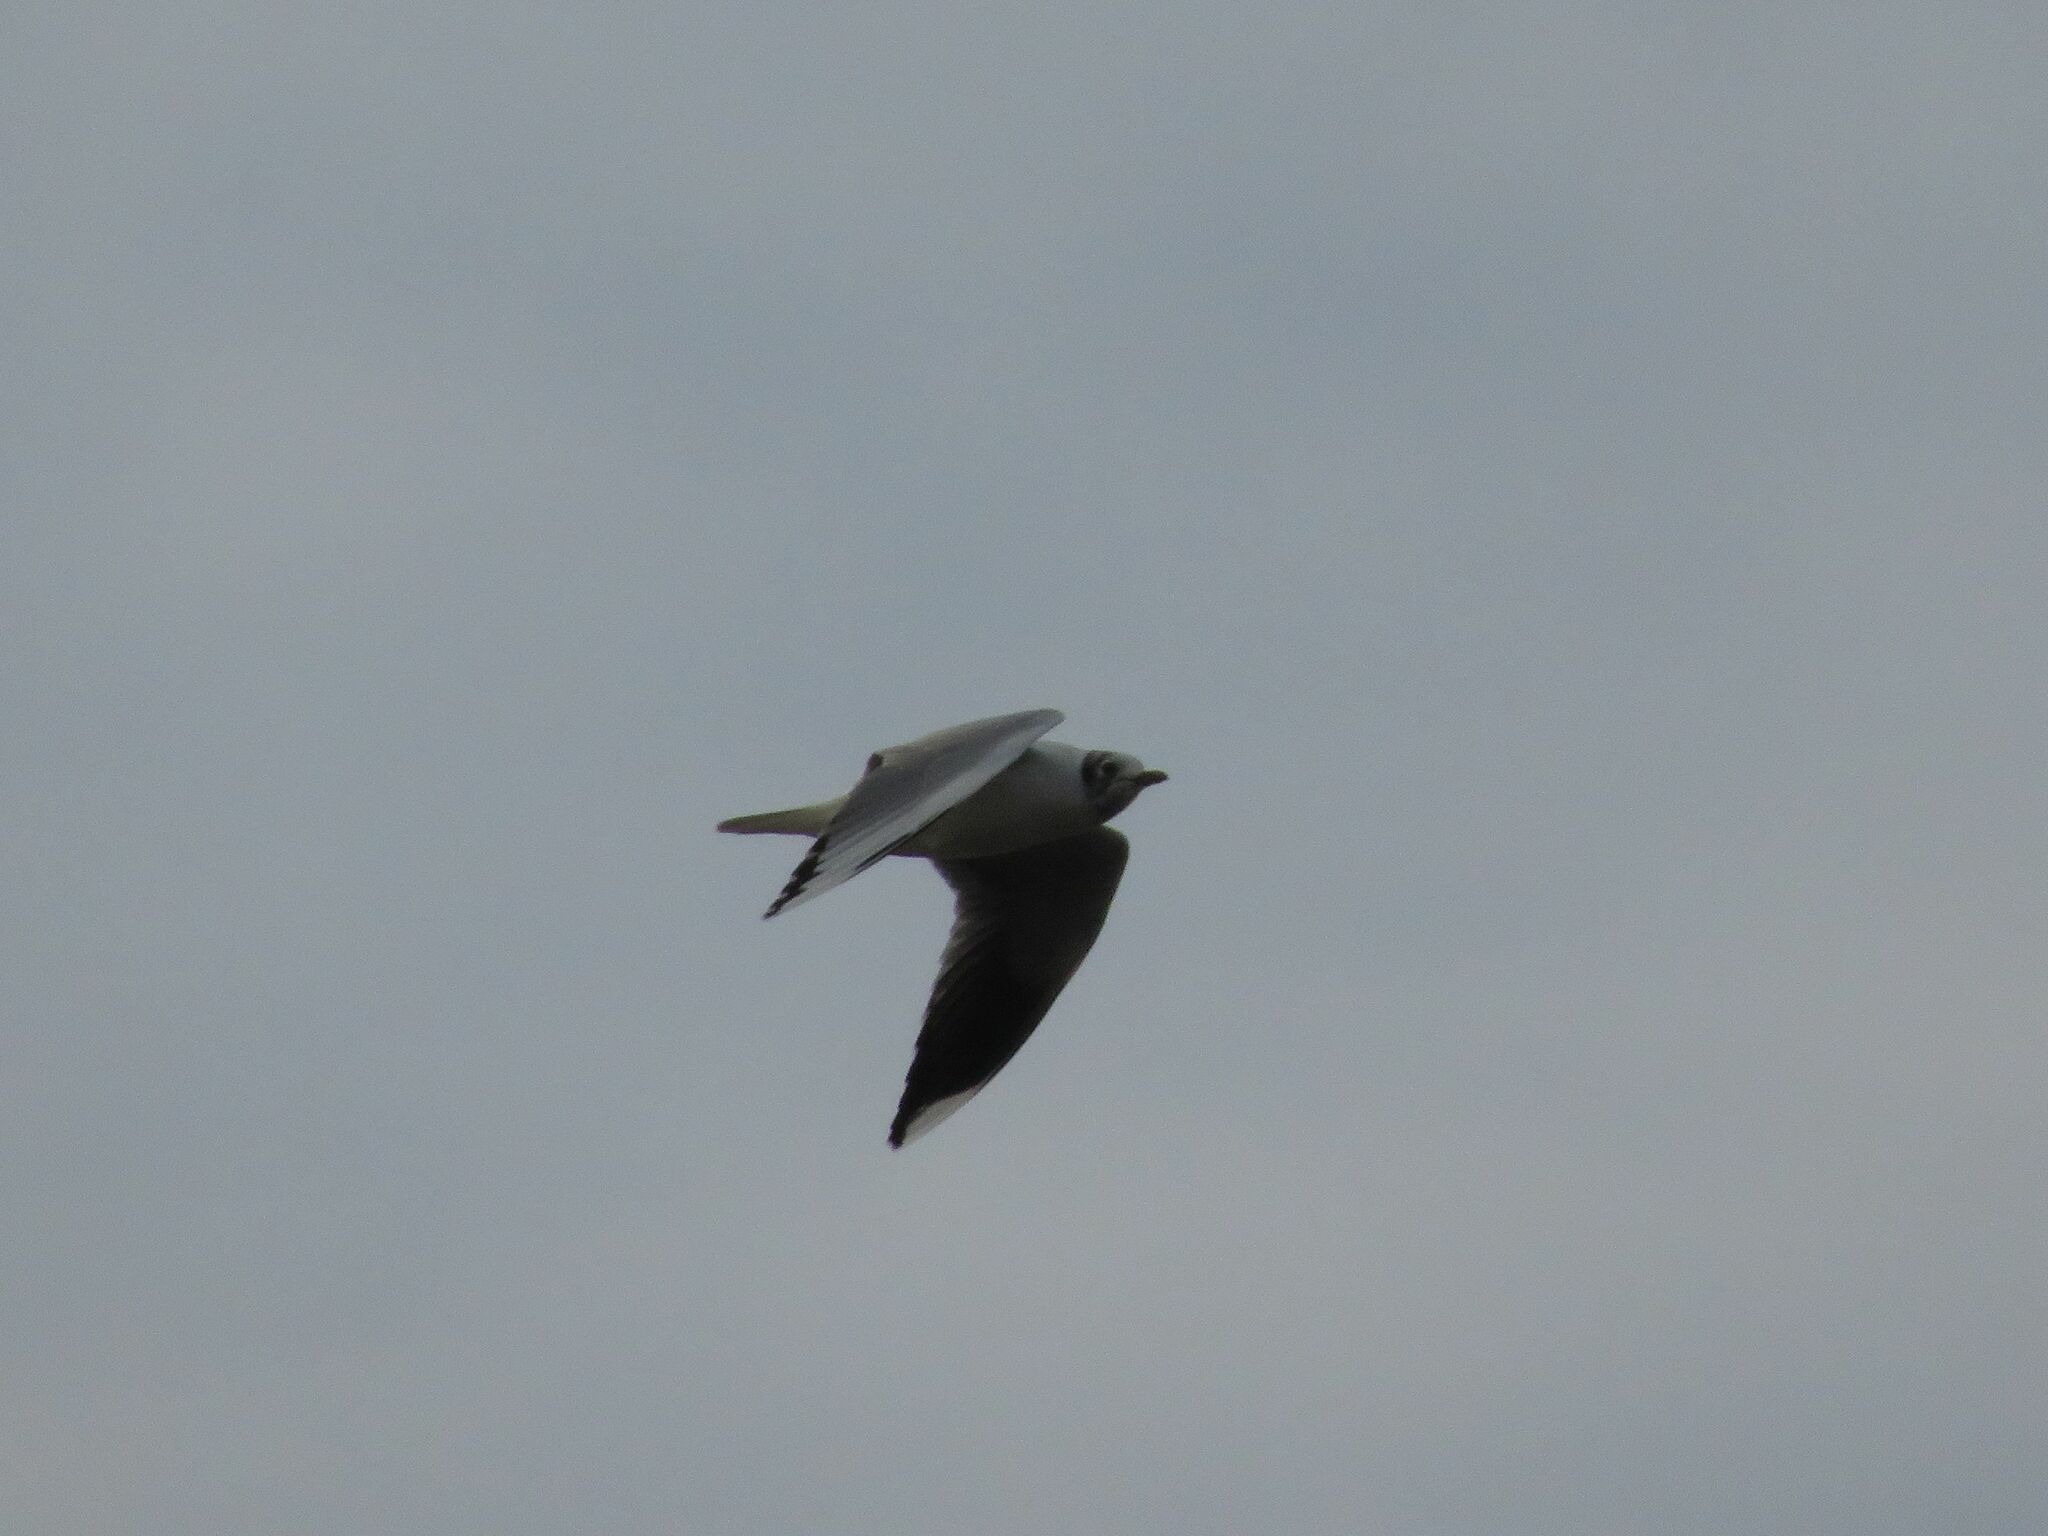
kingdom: Animalia
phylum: Chordata
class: Aves
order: Charadriiformes
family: Laridae
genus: Chroicocephalus
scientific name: Chroicocephalus maculipennis
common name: Brown-hooded gull
